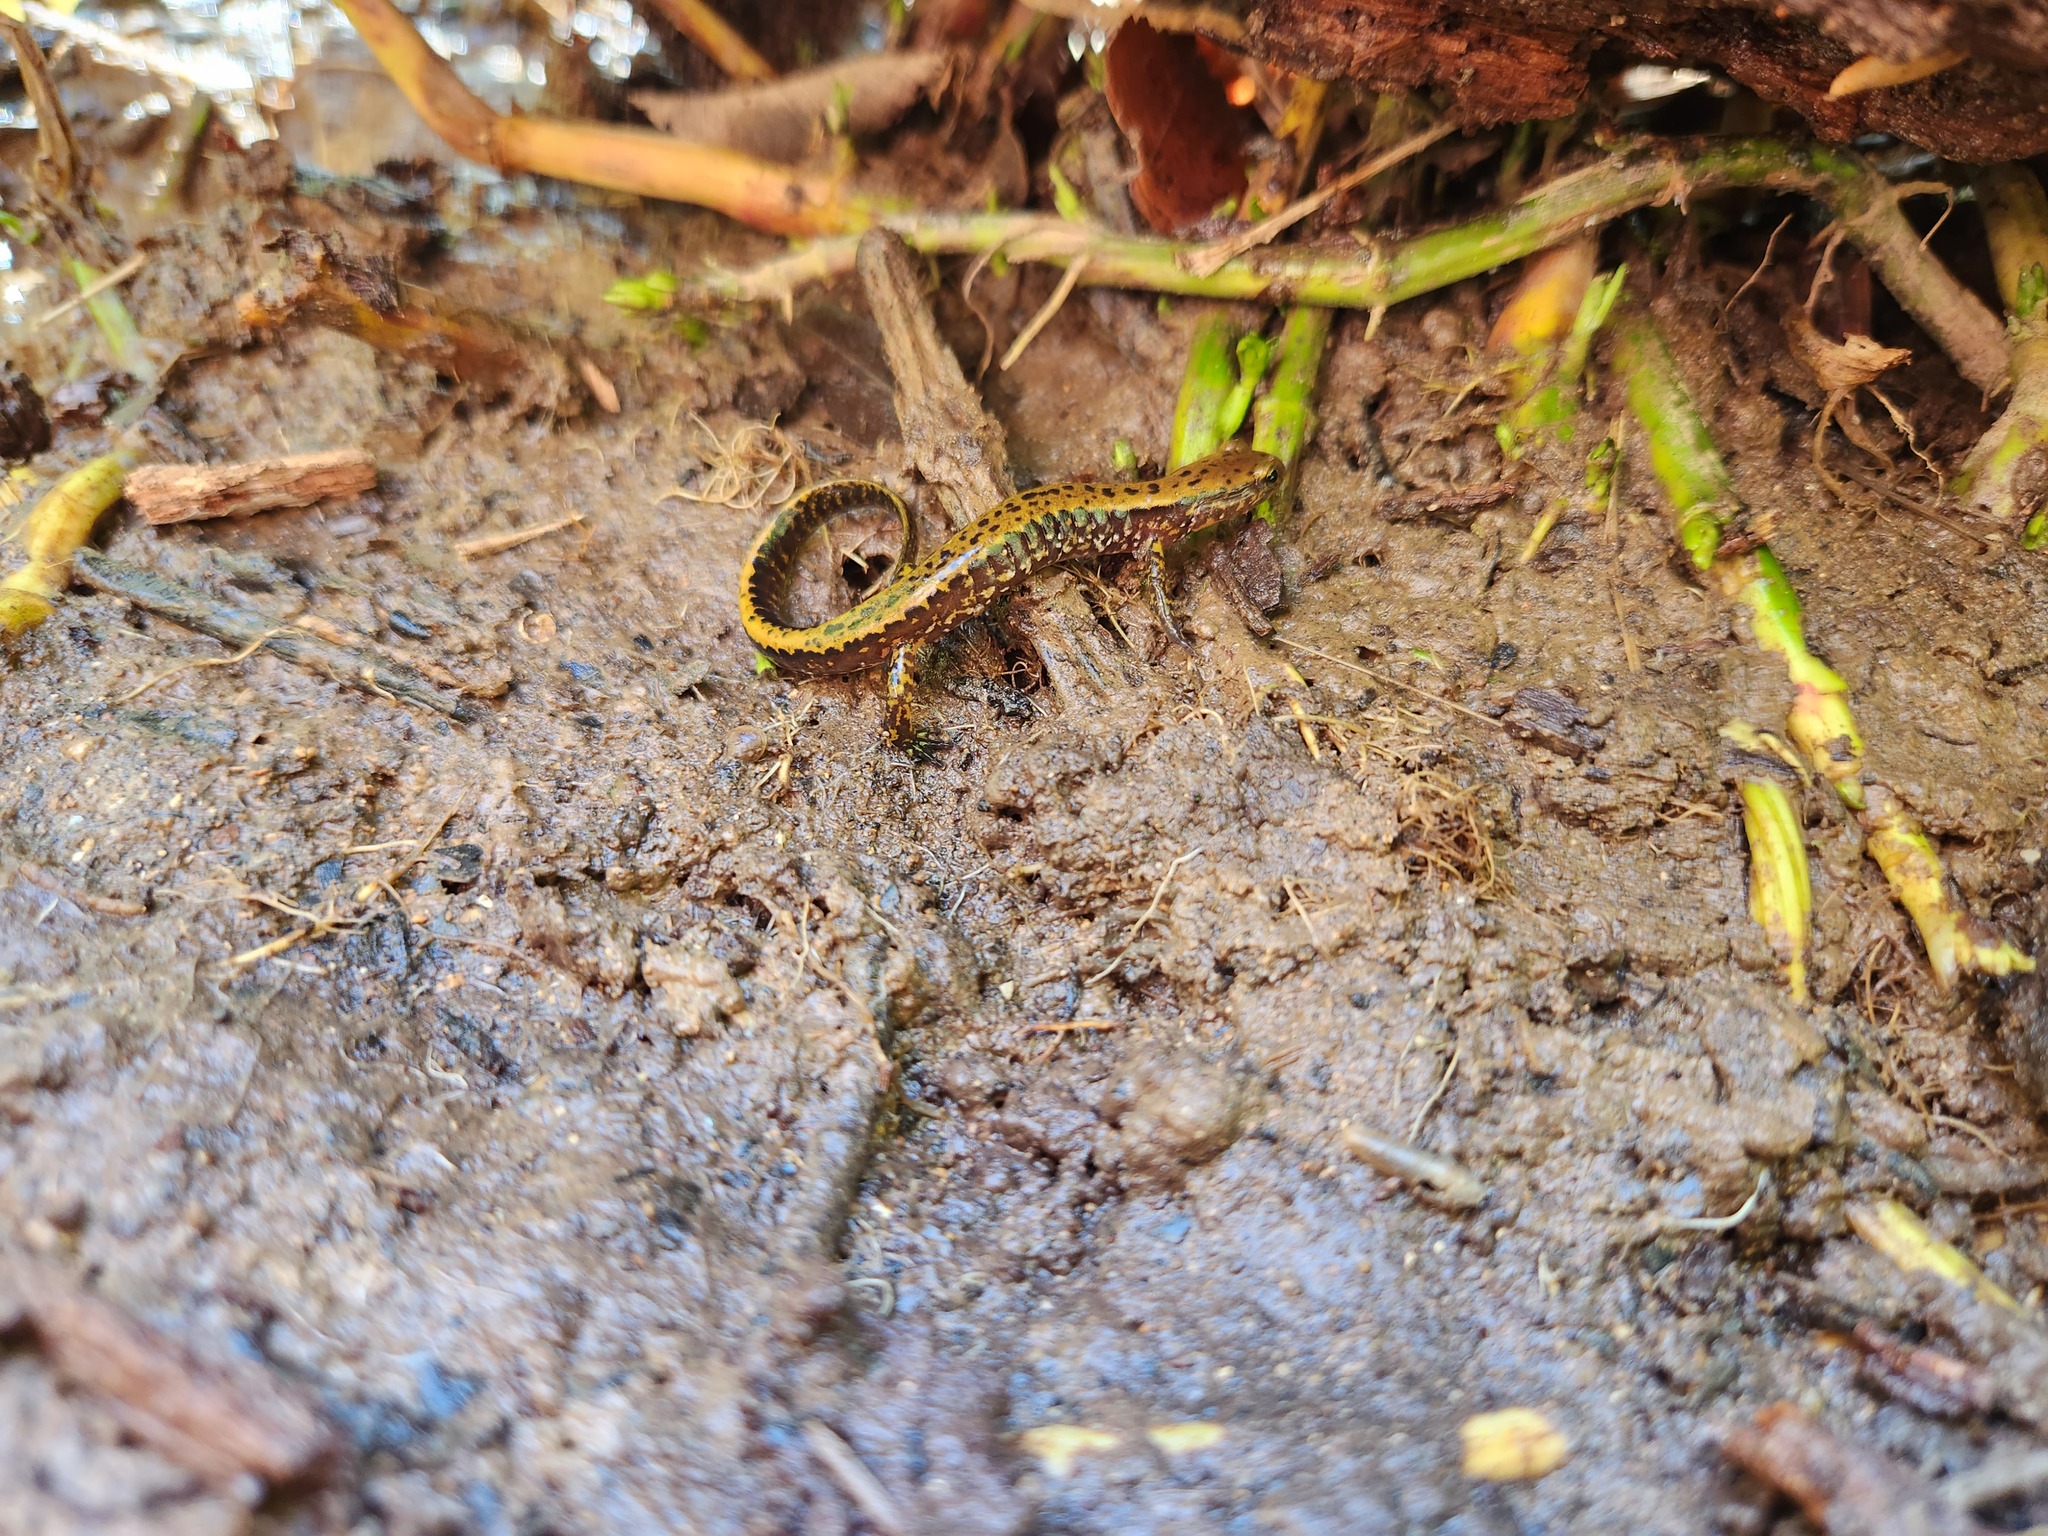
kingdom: Animalia
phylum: Chordata
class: Amphibia
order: Caudata
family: Plethodontidae
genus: Eurycea
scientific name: Eurycea longicauda
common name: Long-tailed salamander
